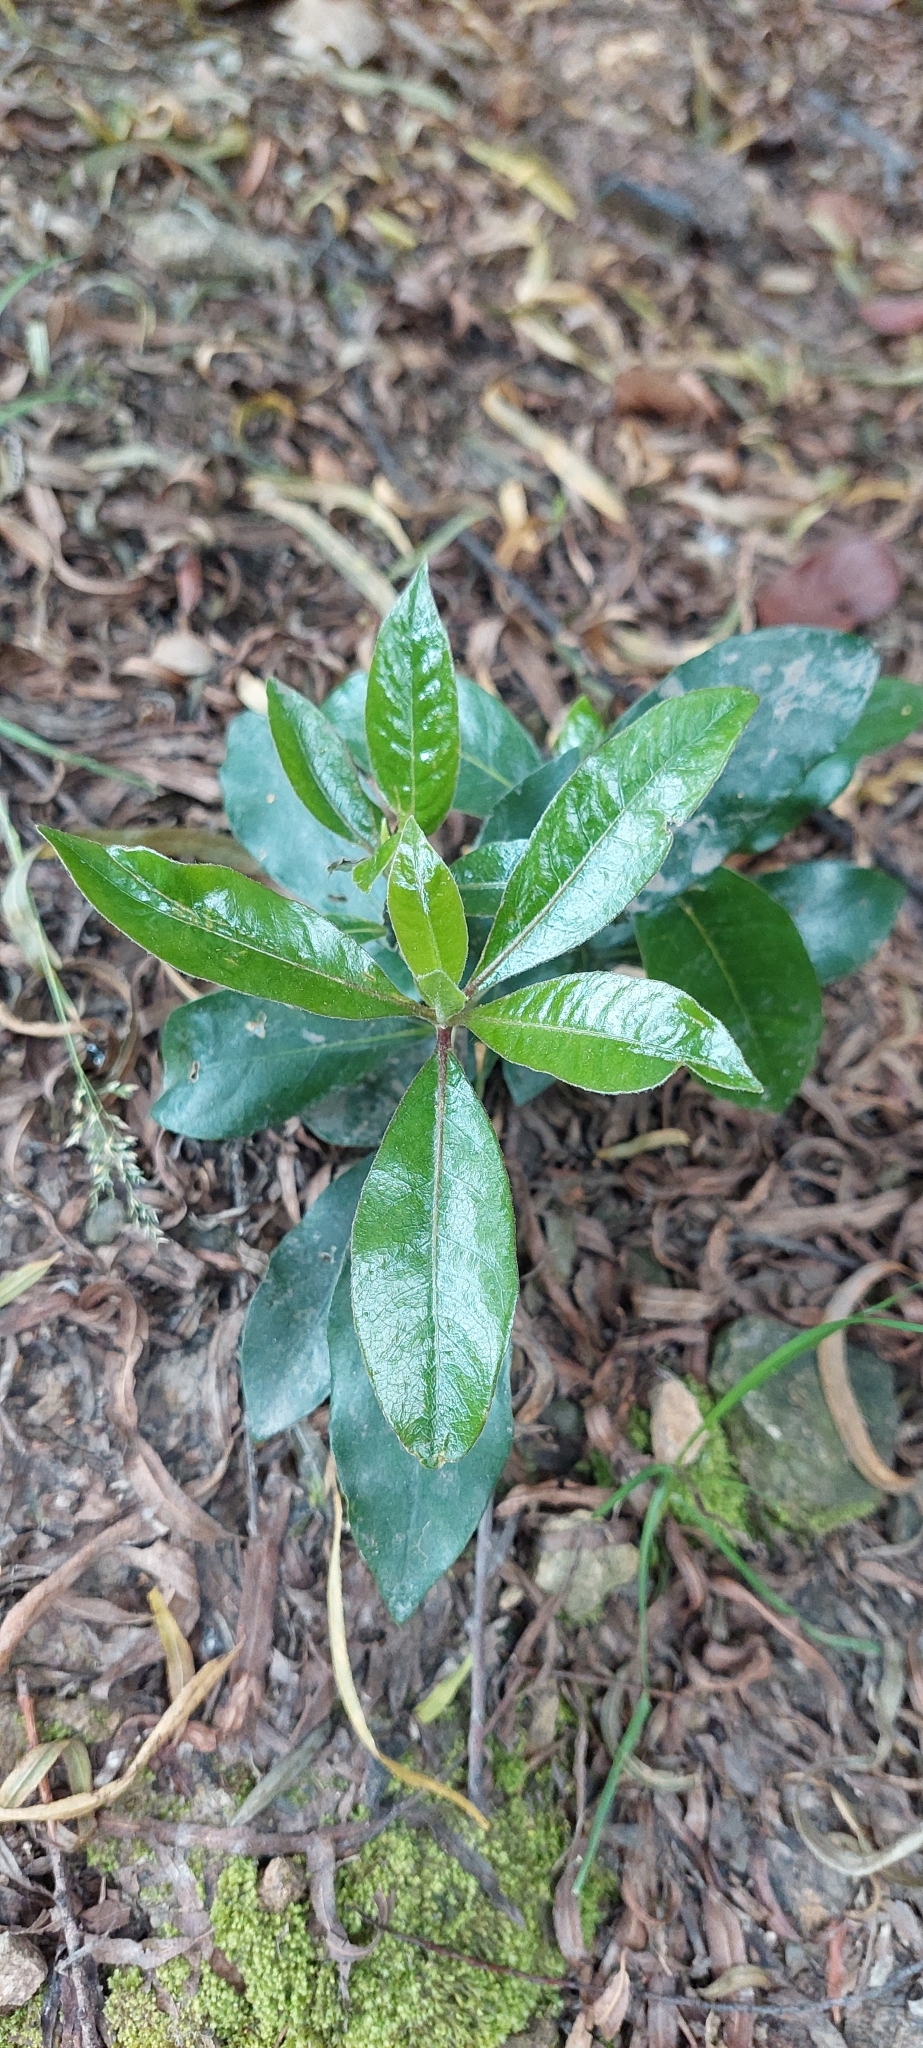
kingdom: Plantae
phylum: Tracheophyta
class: Magnoliopsida
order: Apiales
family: Pittosporaceae
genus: Pittosporum
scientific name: Pittosporum undulatum
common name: Australian cheesewood
